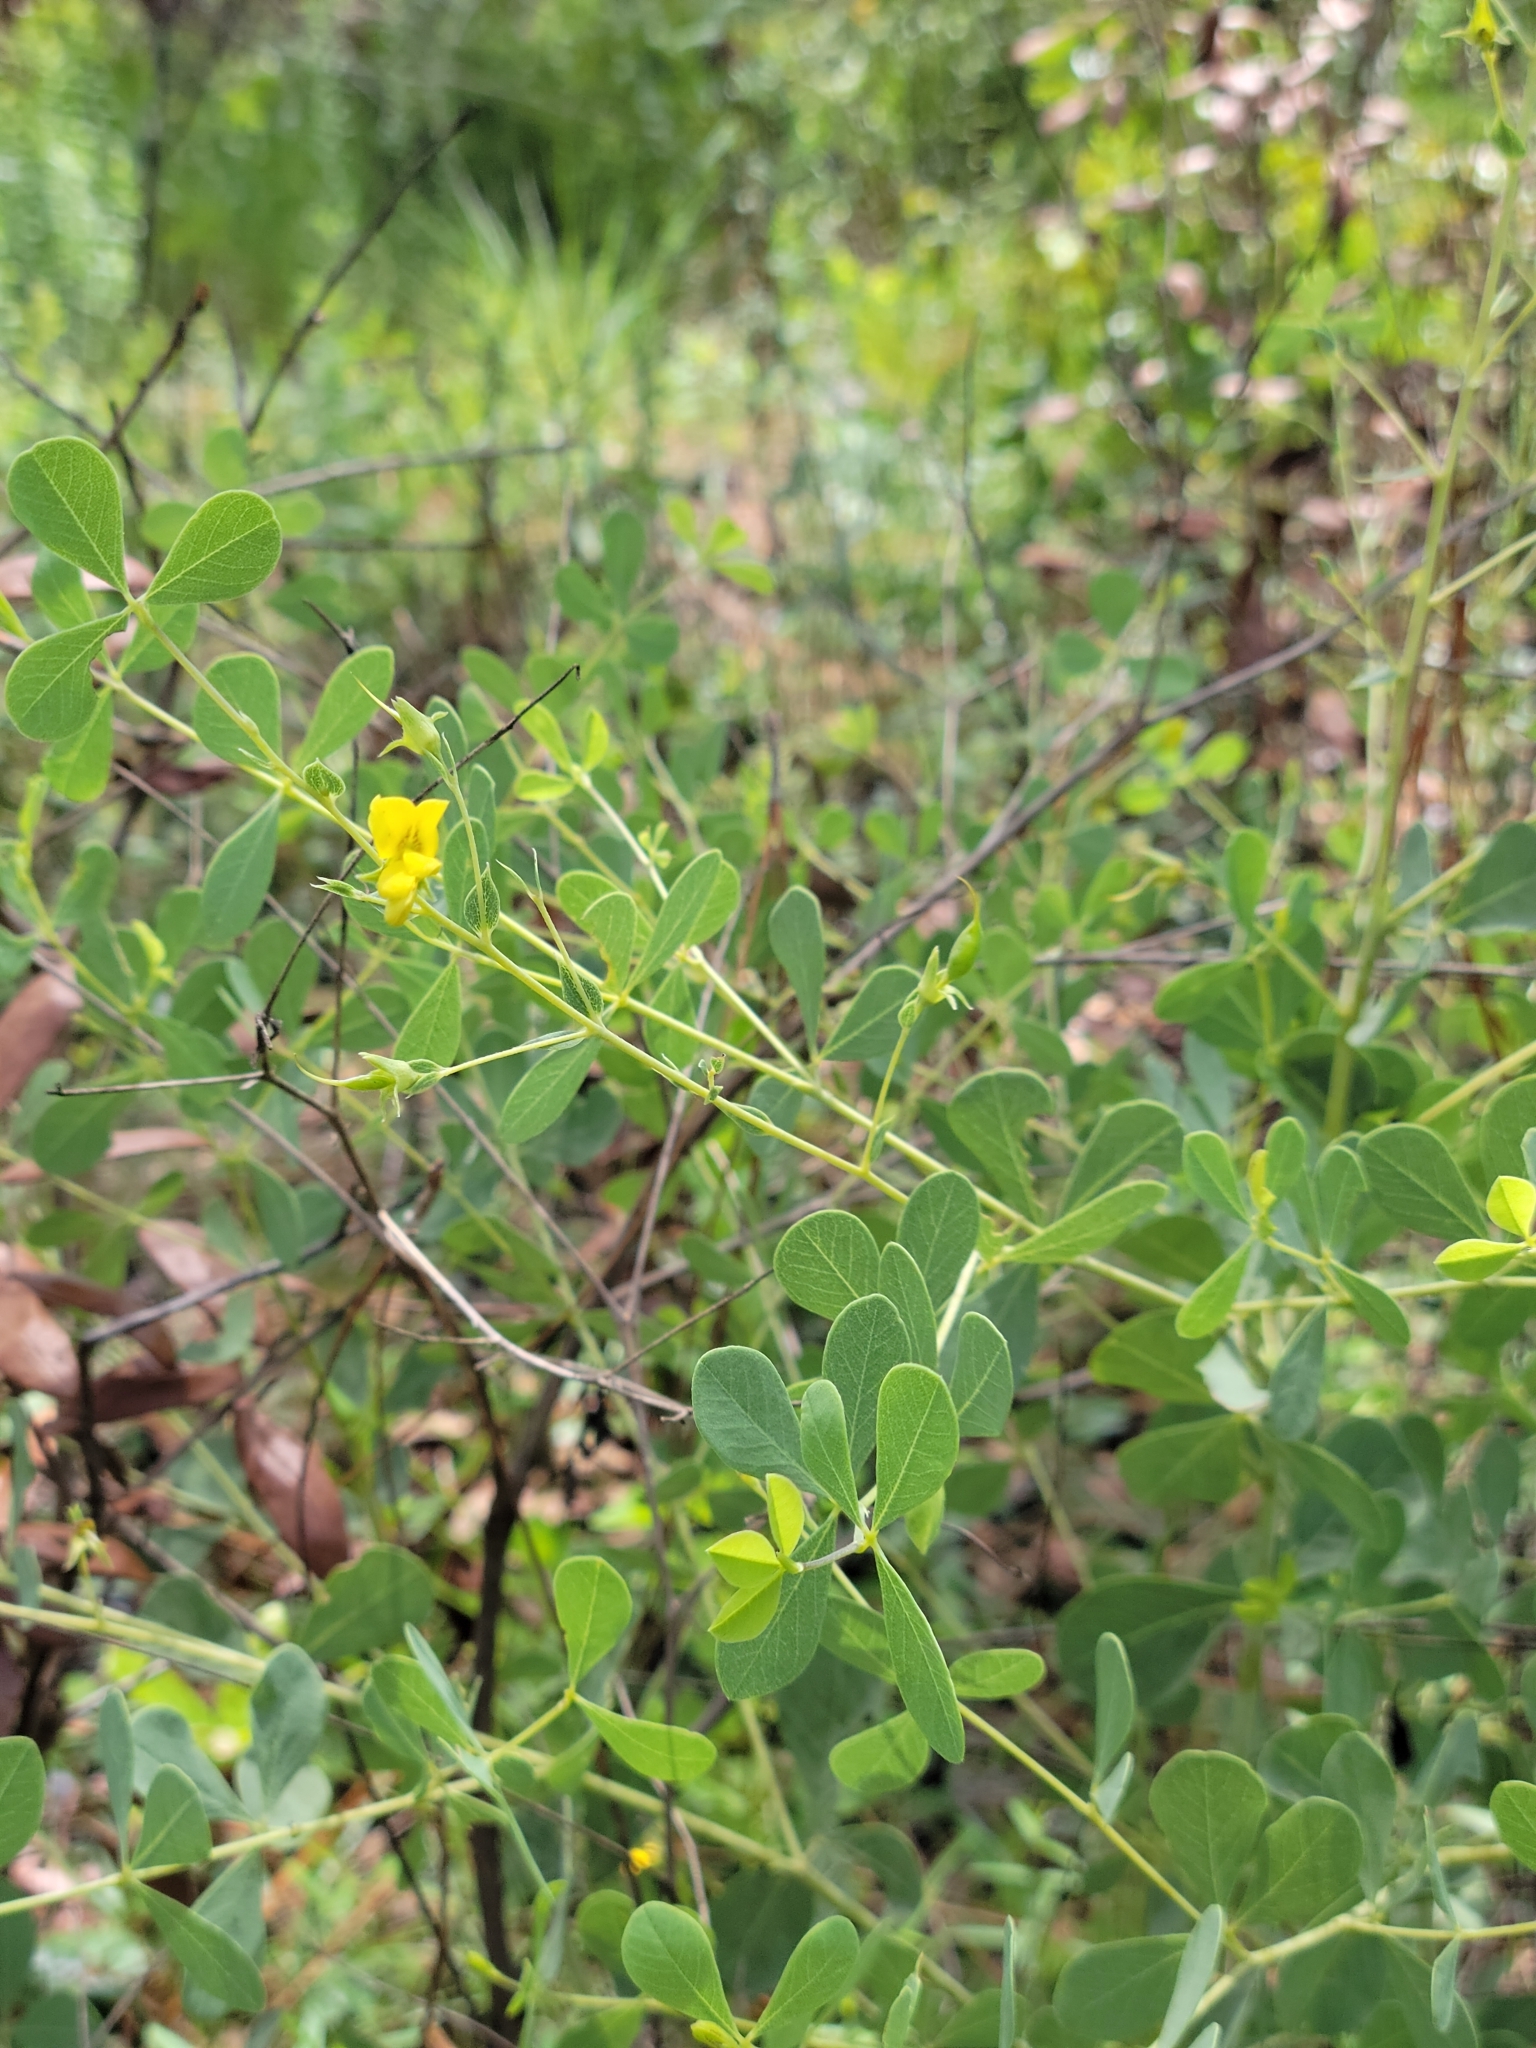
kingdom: Plantae
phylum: Tracheophyta
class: Magnoliopsida
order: Fabales
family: Fabaceae
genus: Baptisia
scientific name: Baptisia lecontei
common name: Pineland wild indigo
